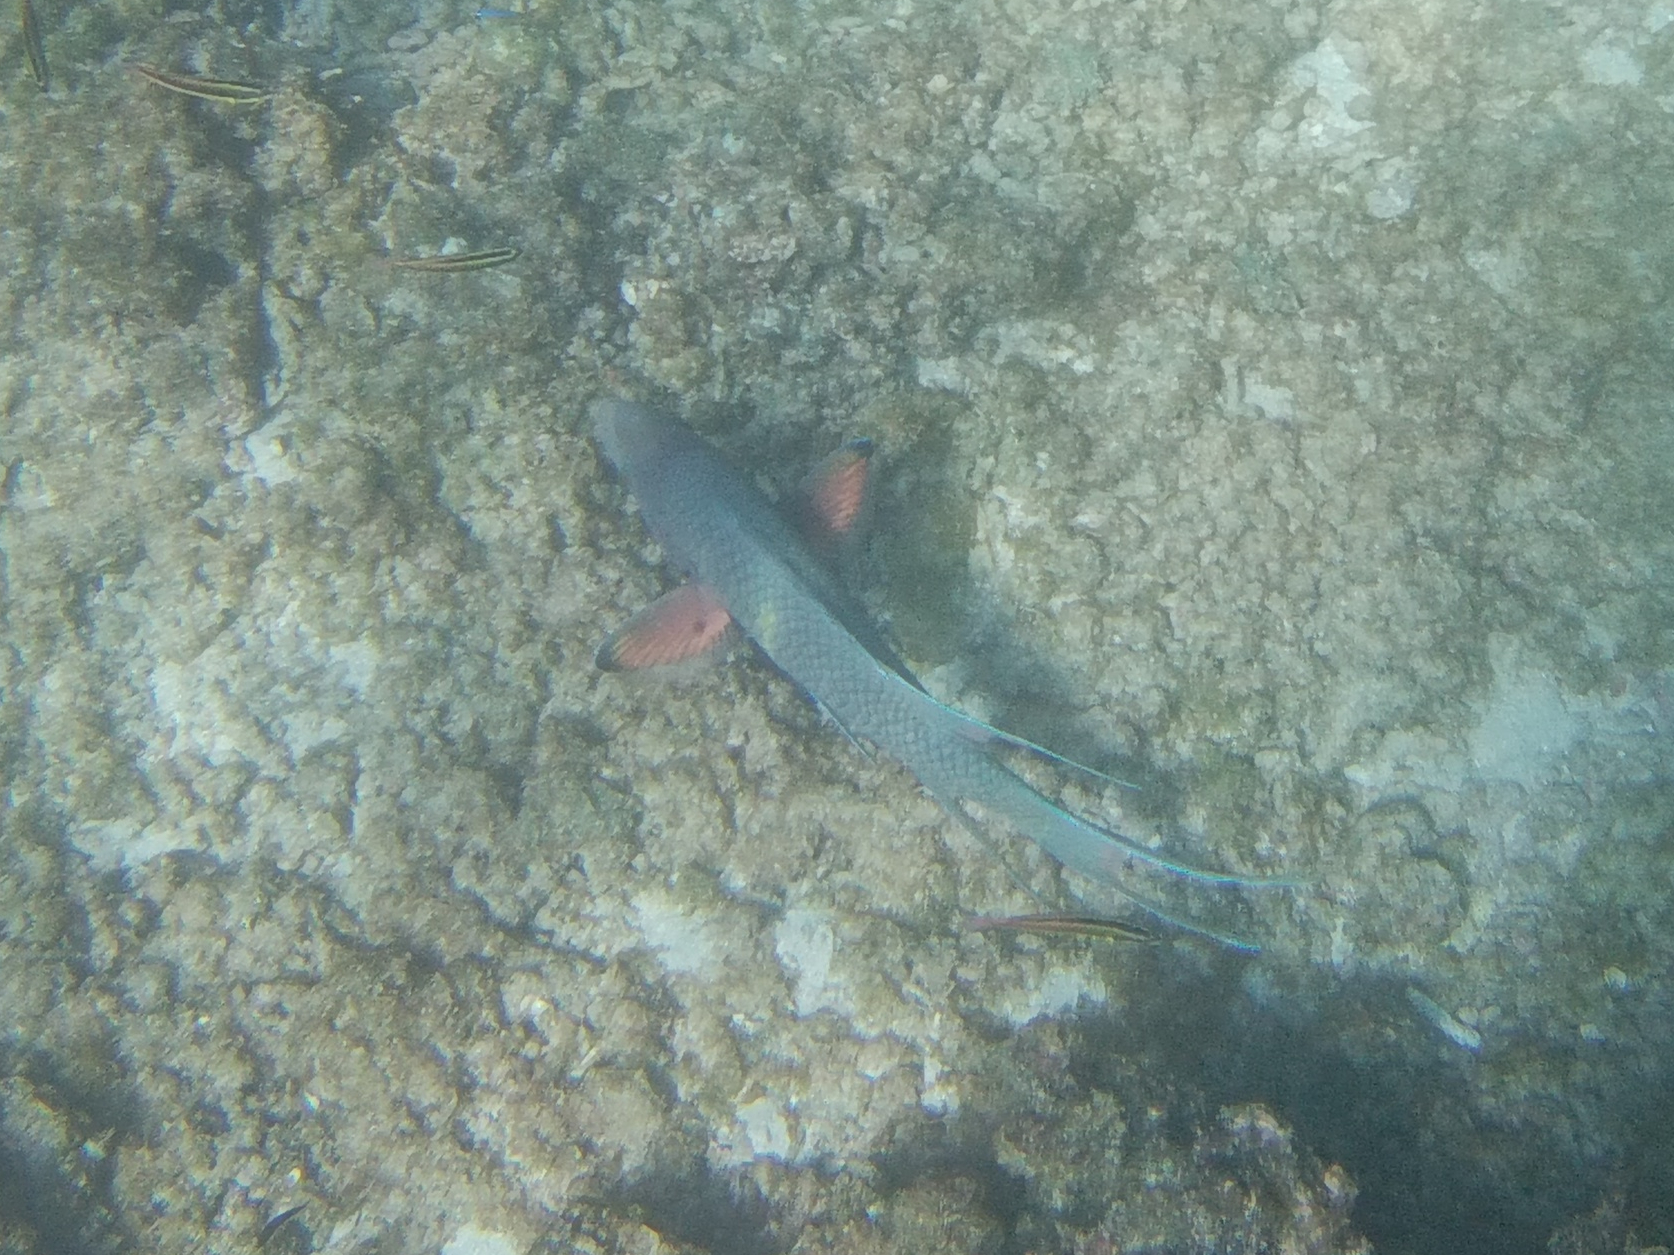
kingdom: Animalia
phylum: Chordata
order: Perciformes
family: Labridae
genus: Bodianus
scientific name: Bodianus diplotaenia
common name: Mexican hogfish
